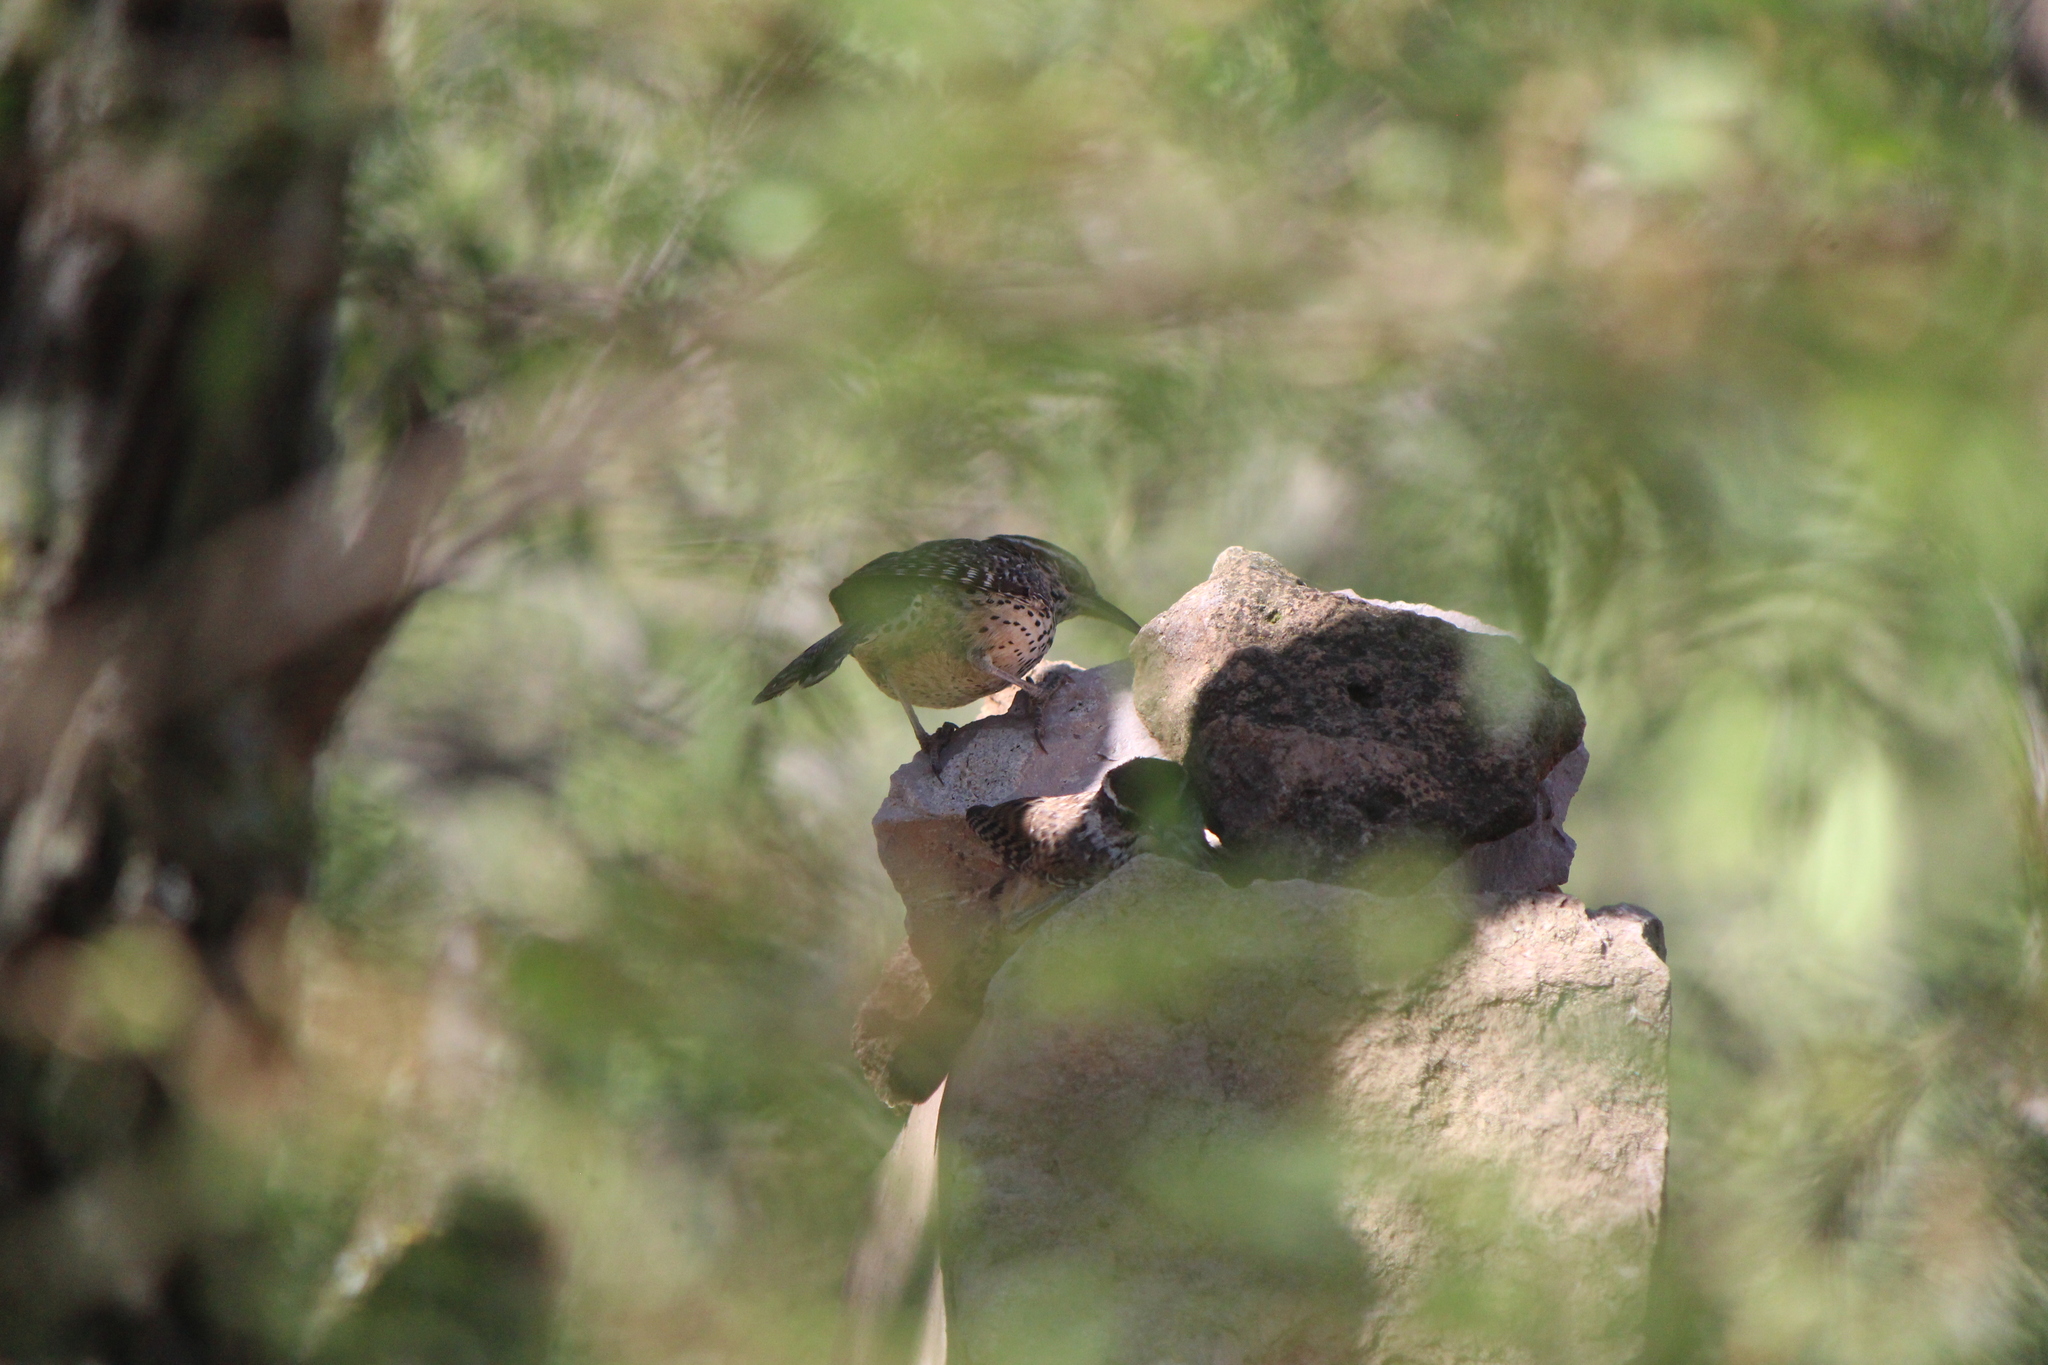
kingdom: Animalia
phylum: Chordata
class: Aves
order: Passeriformes
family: Troglodytidae
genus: Campylorhynchus
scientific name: Campylorhynchus brunneicapillus
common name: Cactus wren
